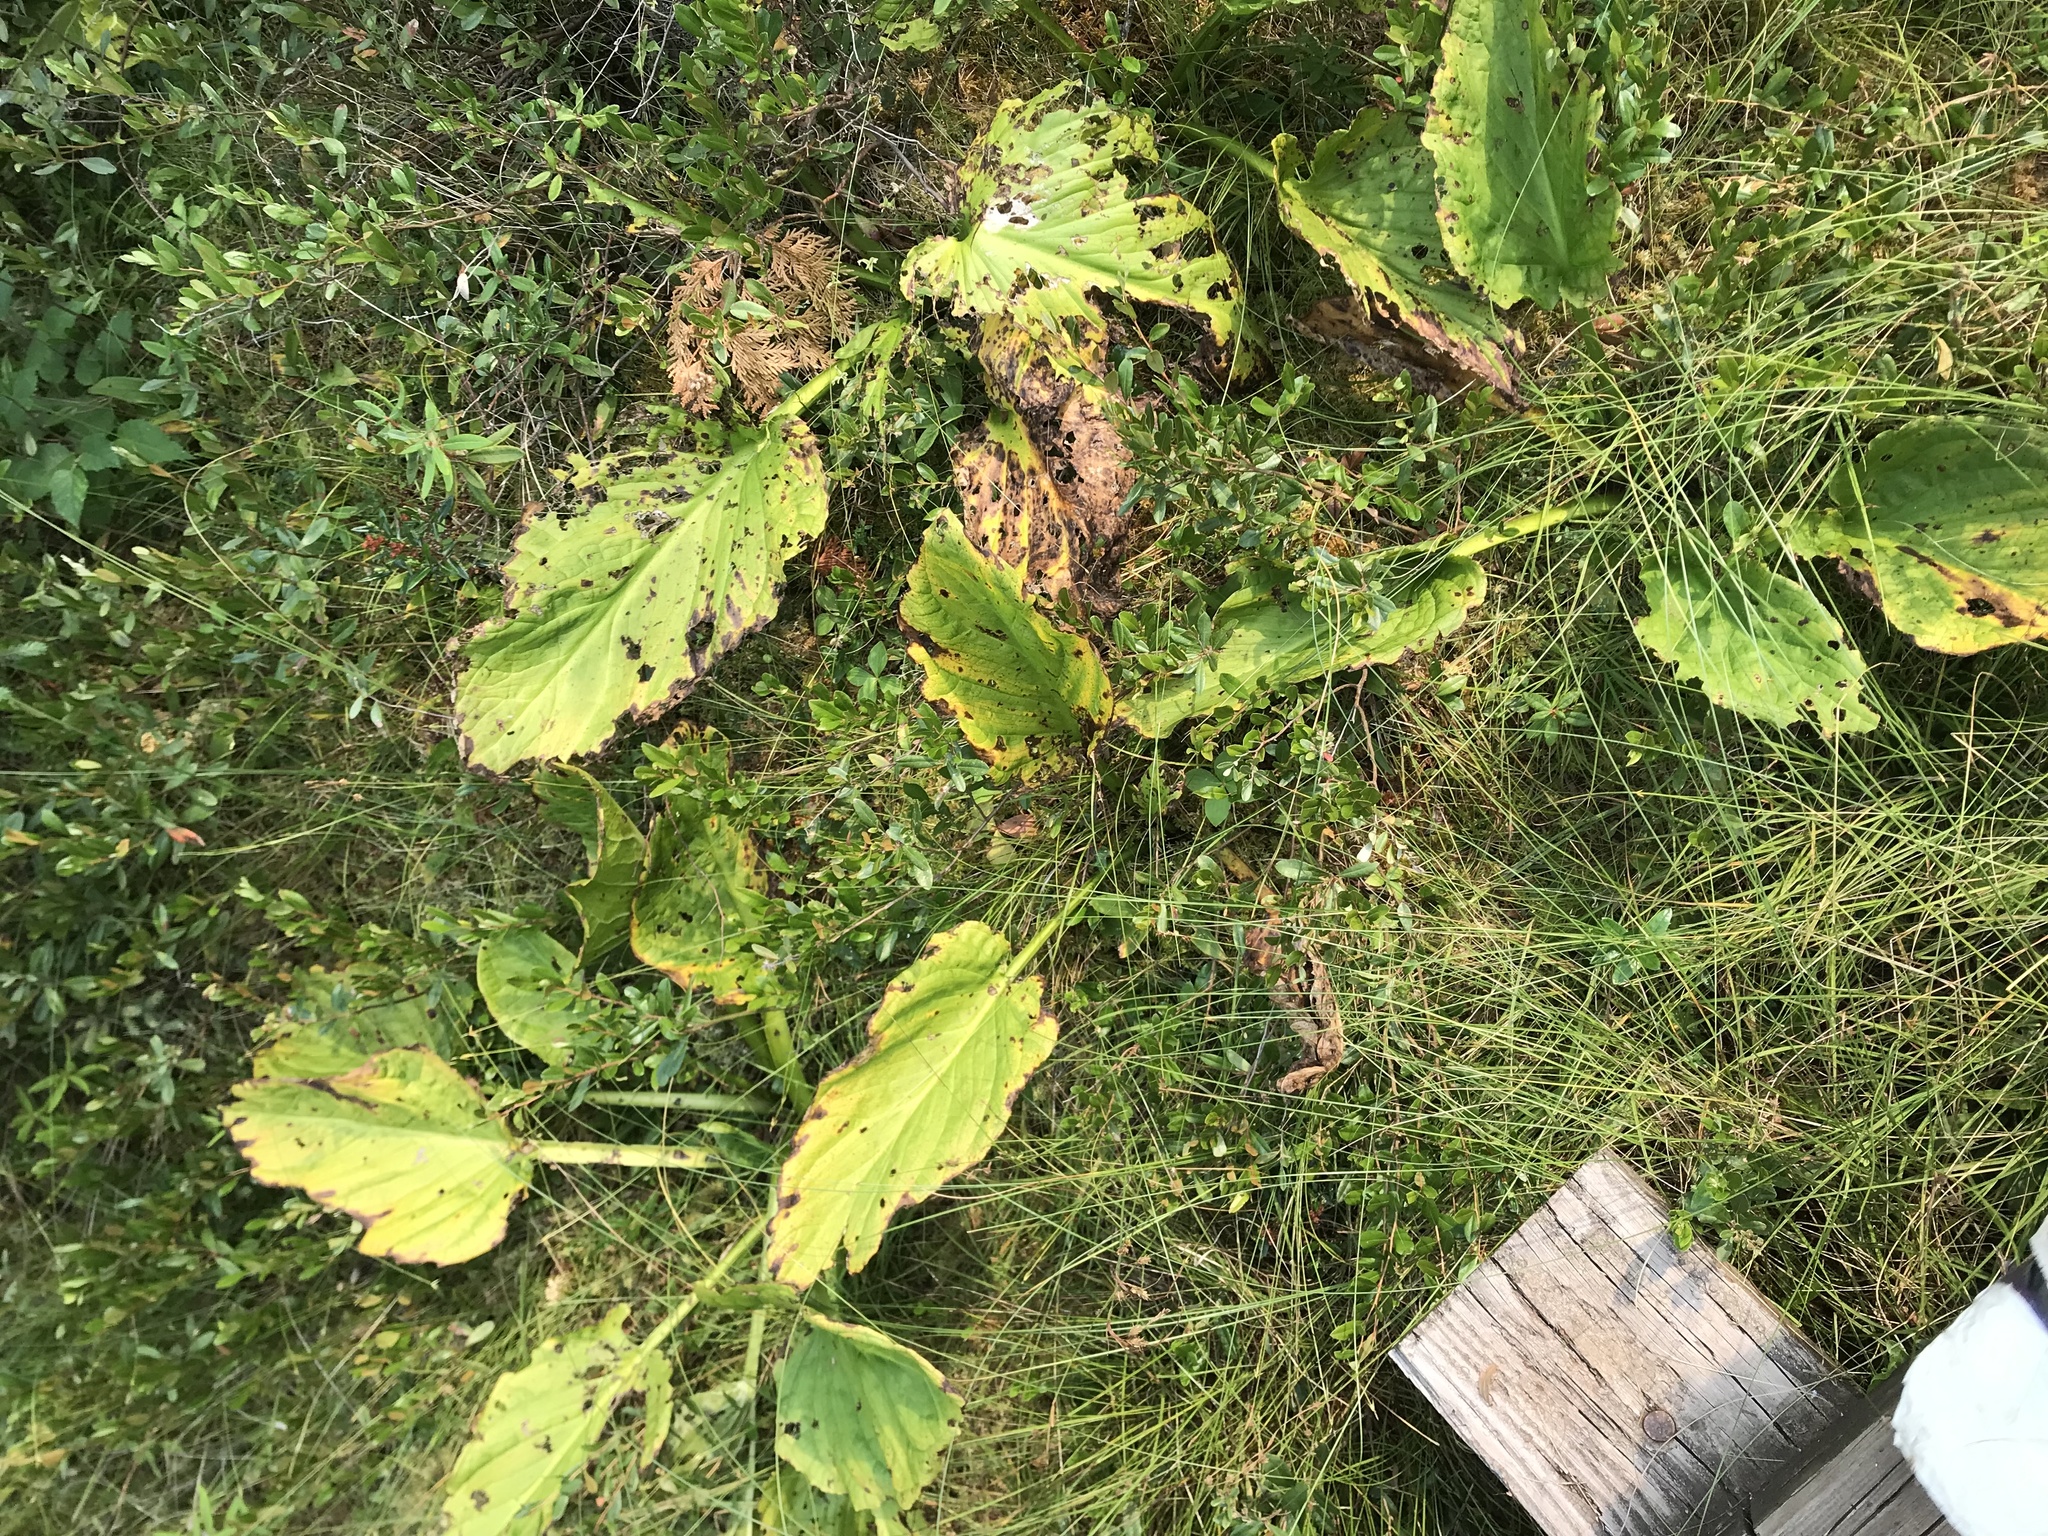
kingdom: Plantae
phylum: Tracheophyta
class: Liliopsida
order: Alismatales
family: Araceae
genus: Symplocarpus
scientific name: Symplocarpus foetidus
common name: Eastern skunk cabbage
